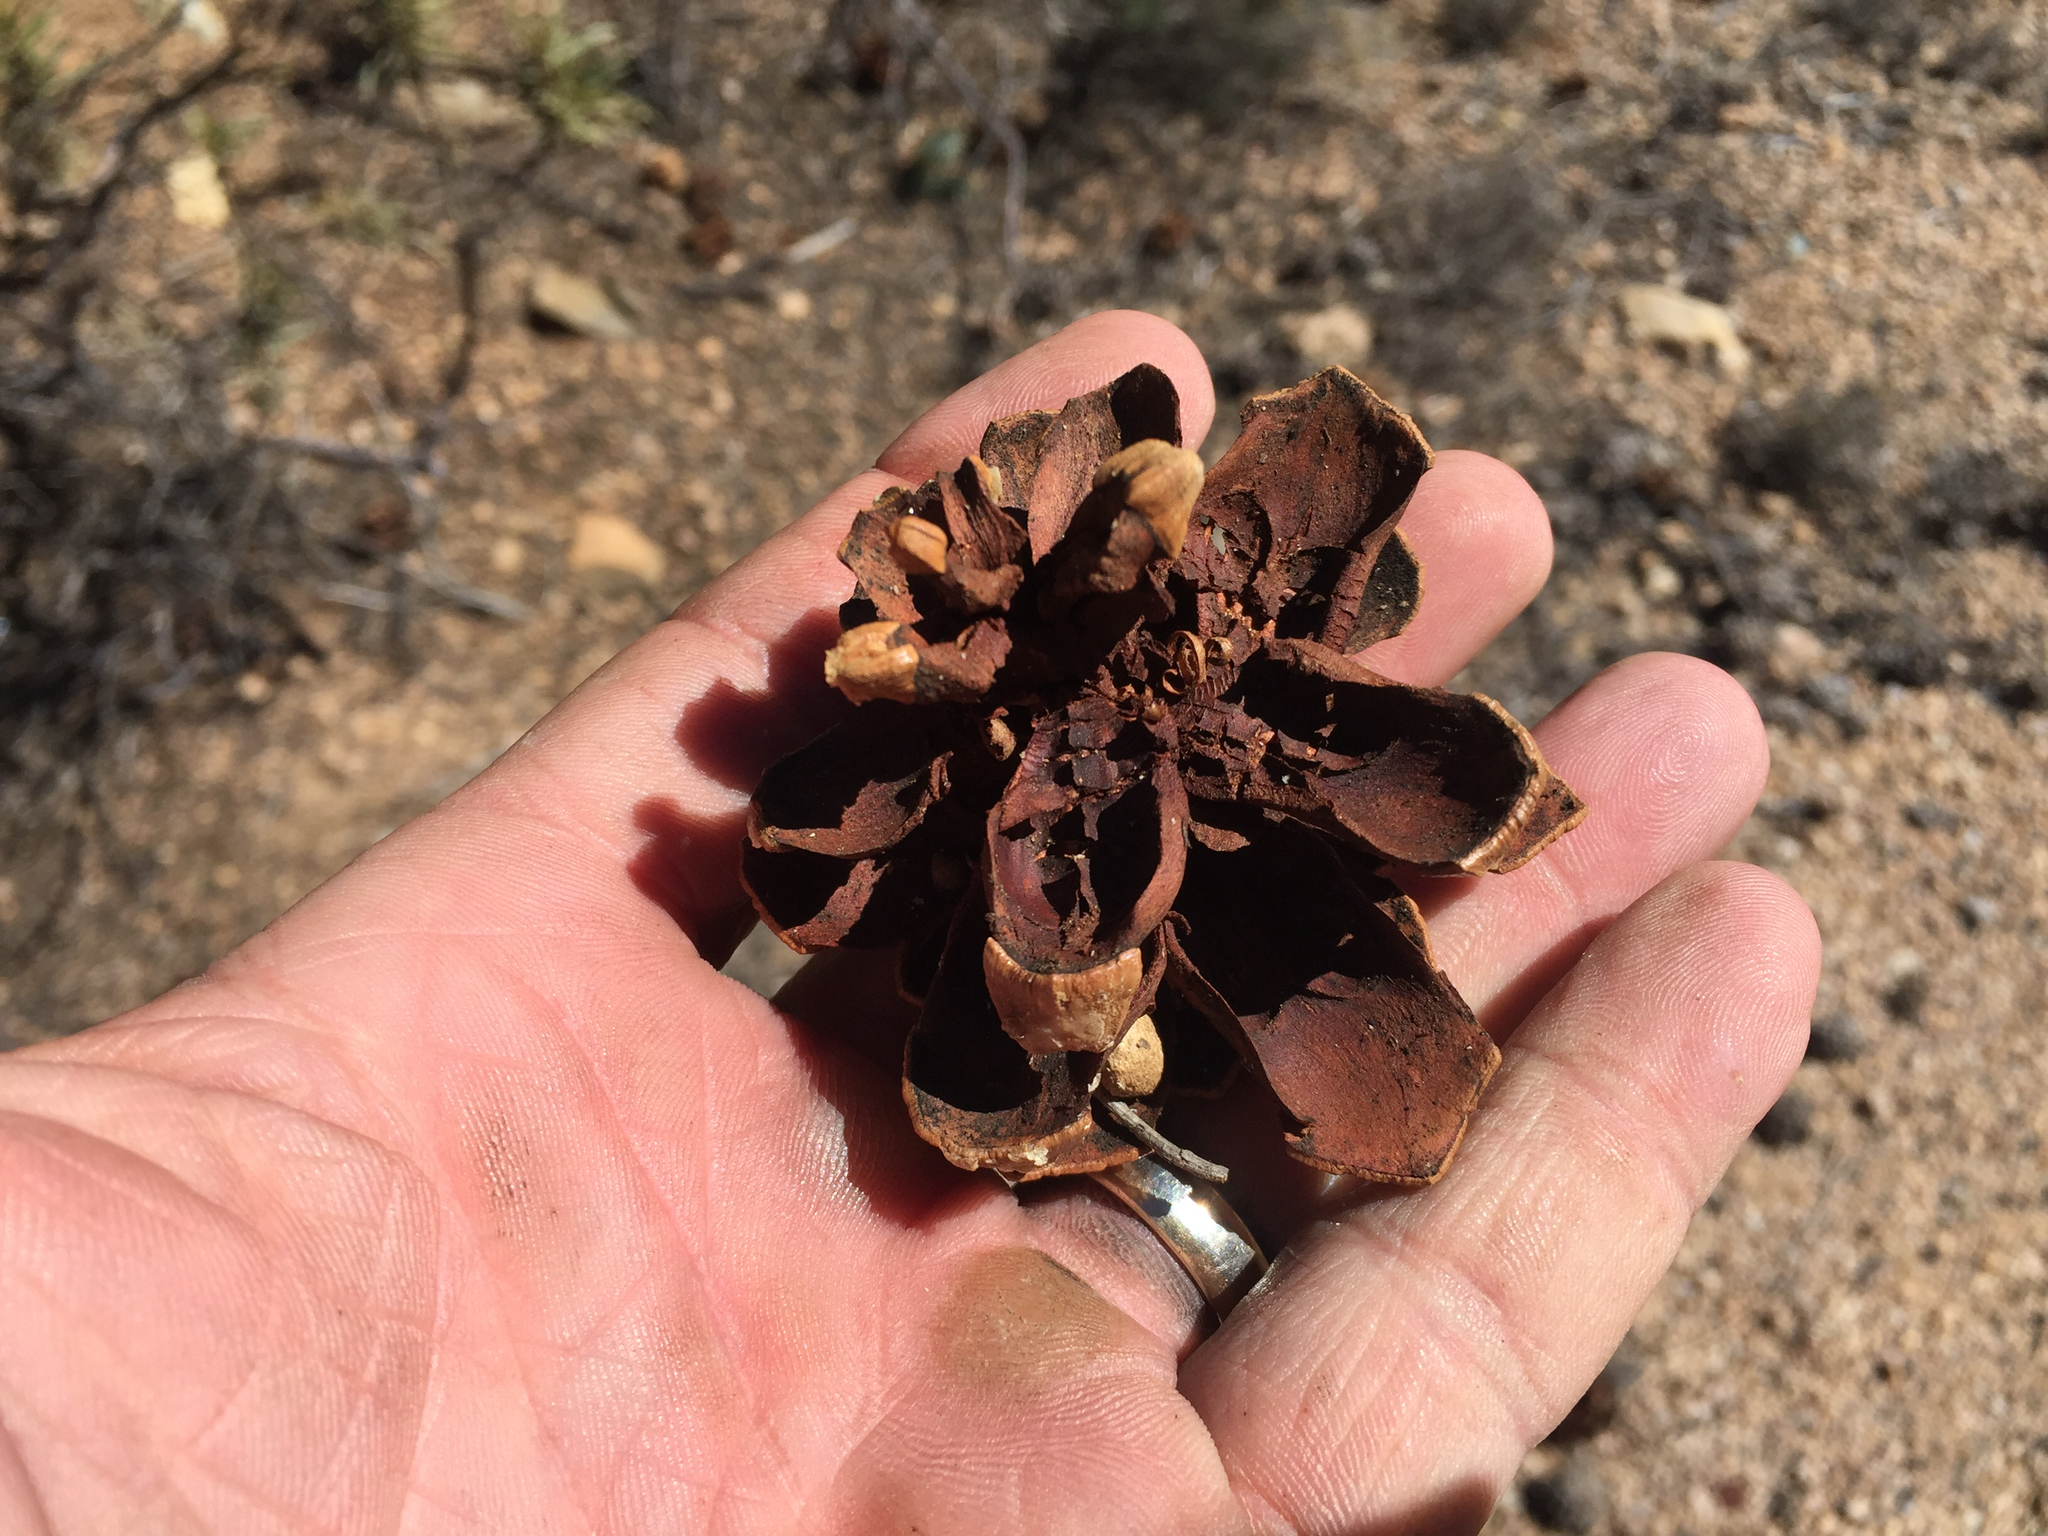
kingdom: Plantae
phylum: Tracheophyta
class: Pinopsida
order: Pinales
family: Pinaceae
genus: Pinus
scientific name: Pinus monophylla
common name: One-leaved nut pine
